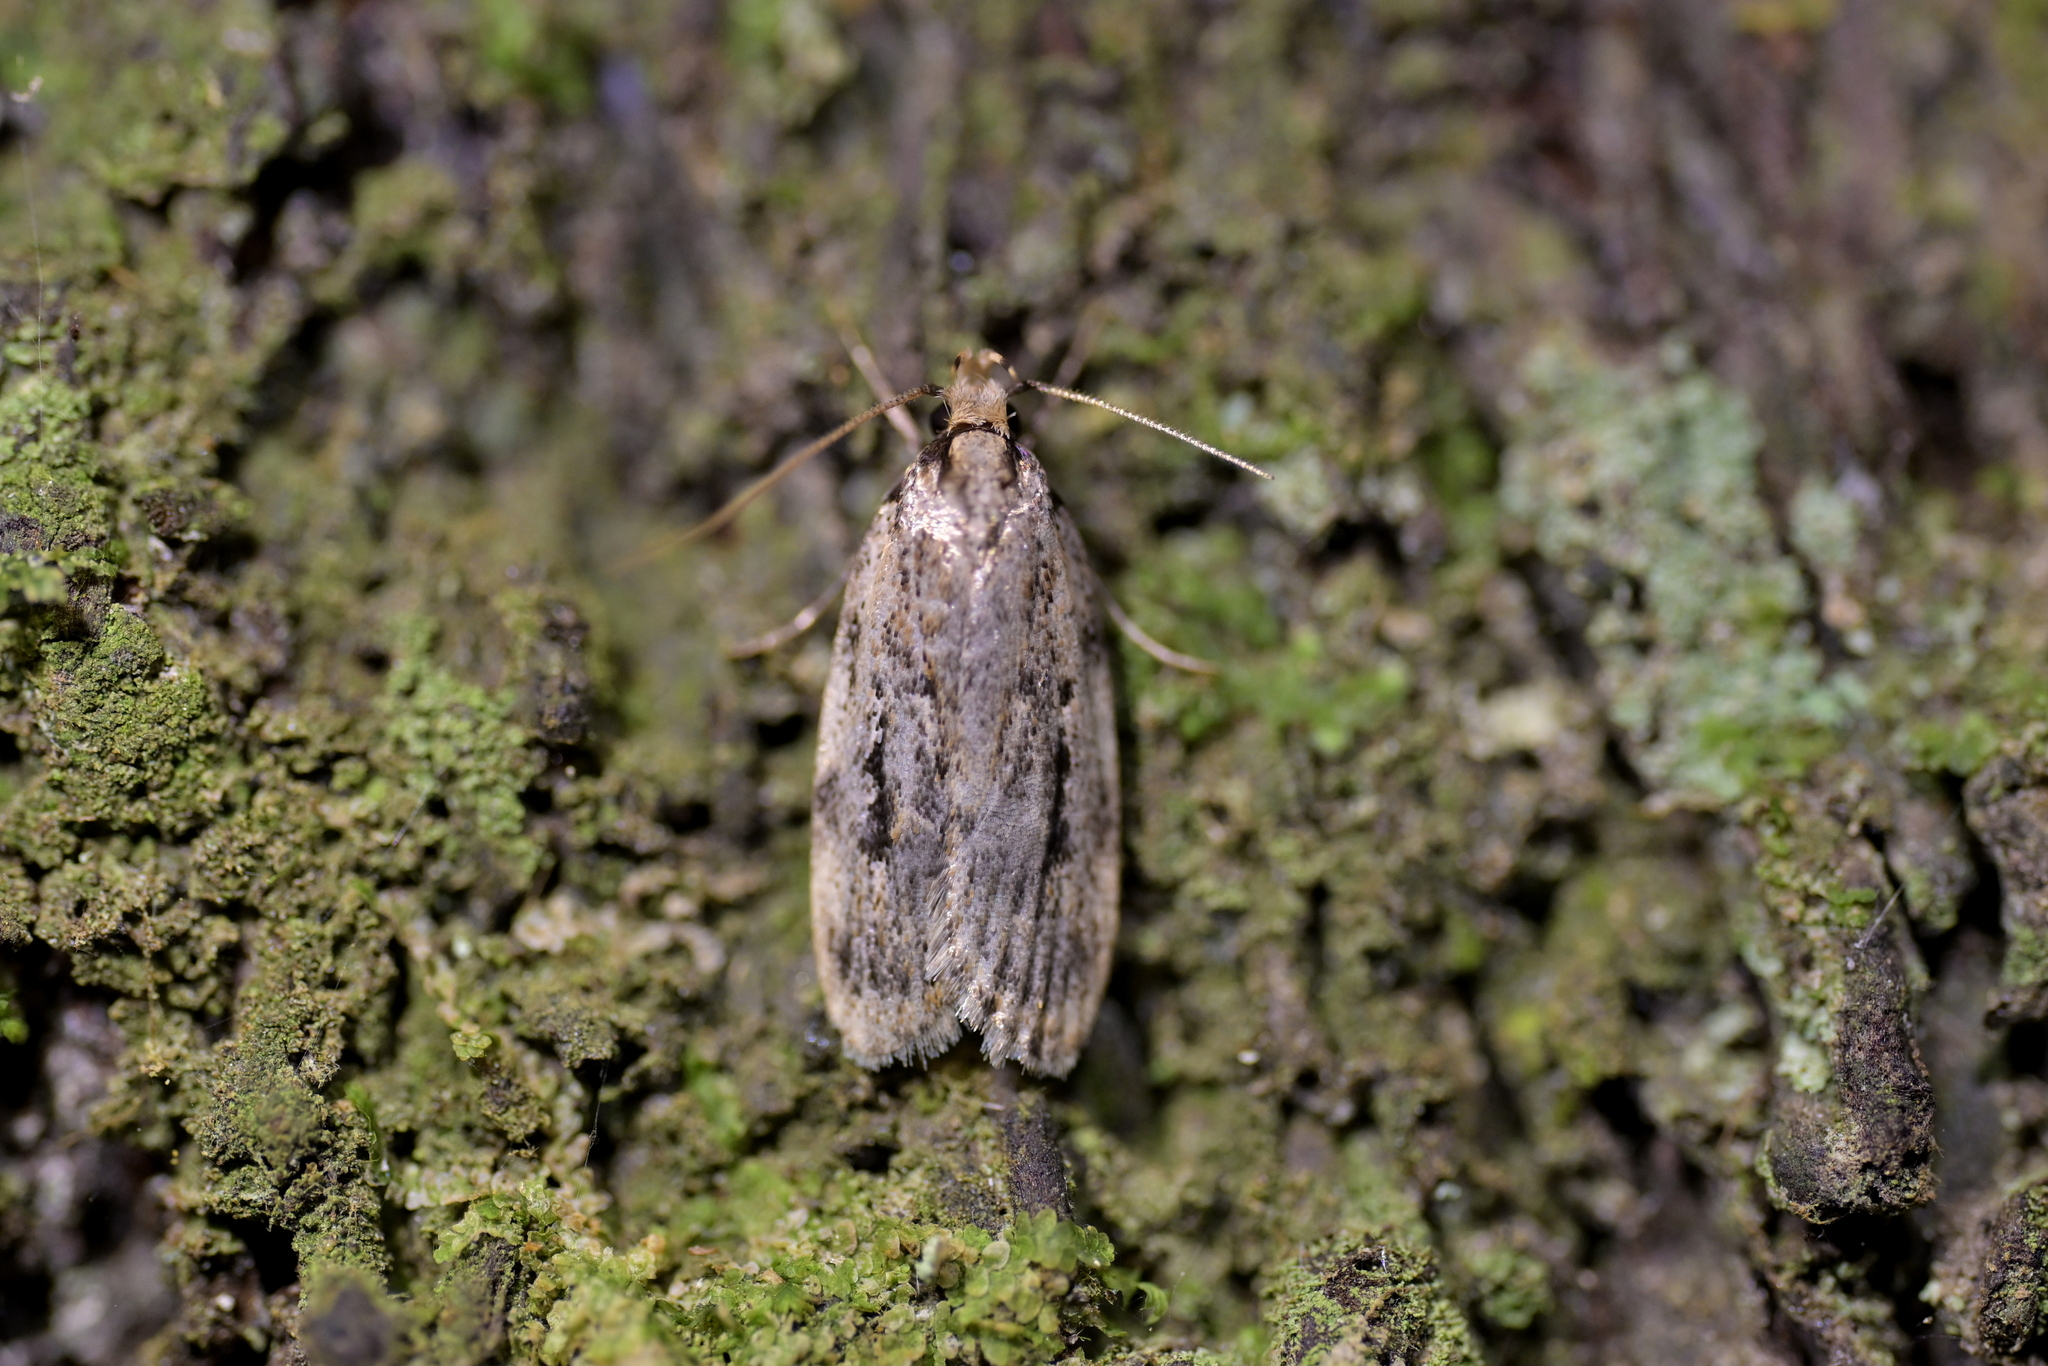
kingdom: Animalia
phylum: Arthropoda
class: Insecta
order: Lepidoptera
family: Oecophoridae
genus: Barea
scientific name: Barea exarcha
